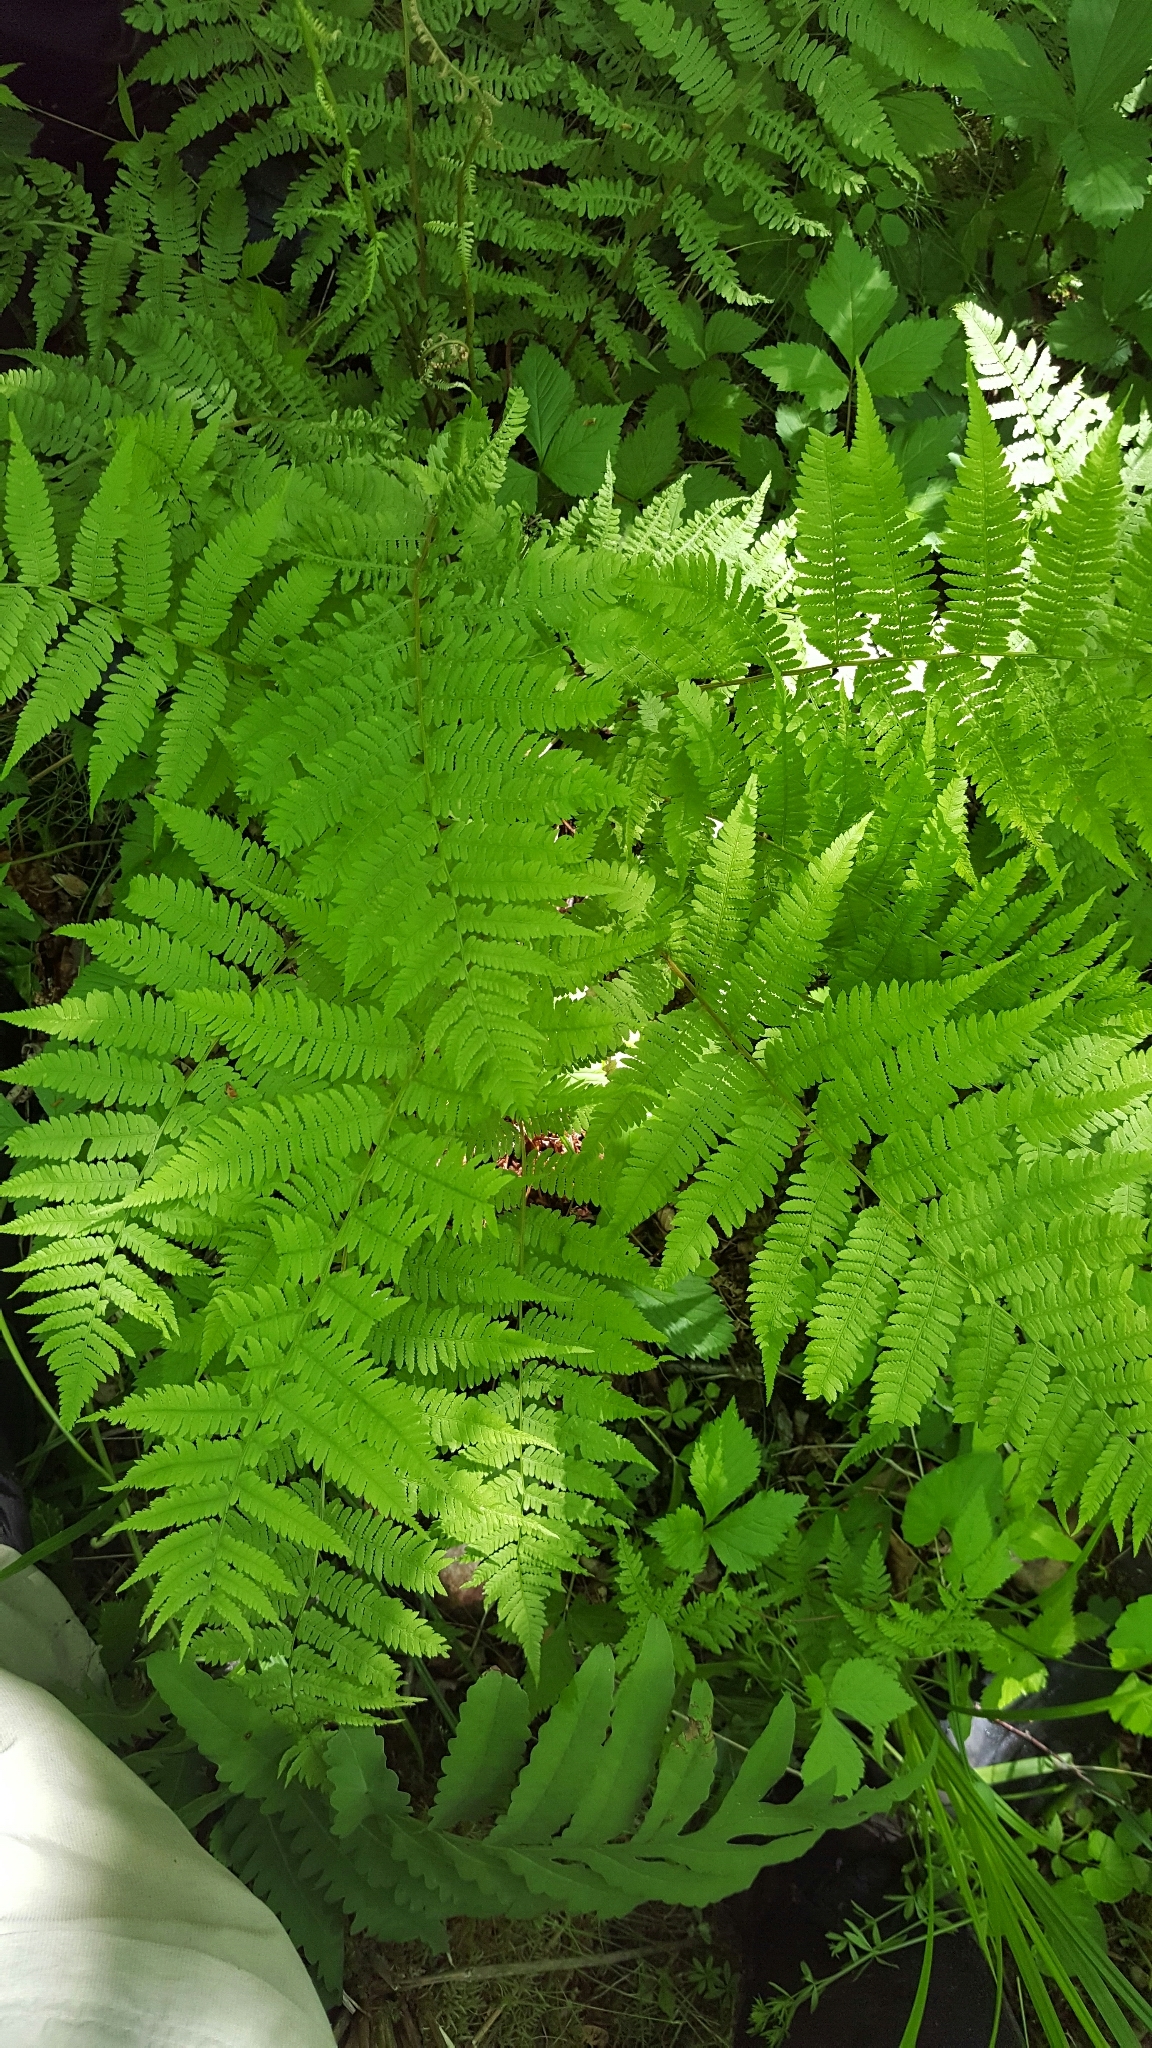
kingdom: Plantae
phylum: Tracheophyta
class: Polypodiopsida
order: Polypodiales
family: Athyriaceae
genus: Athyrium
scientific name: Athyrium angustum
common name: Northern lady fern
